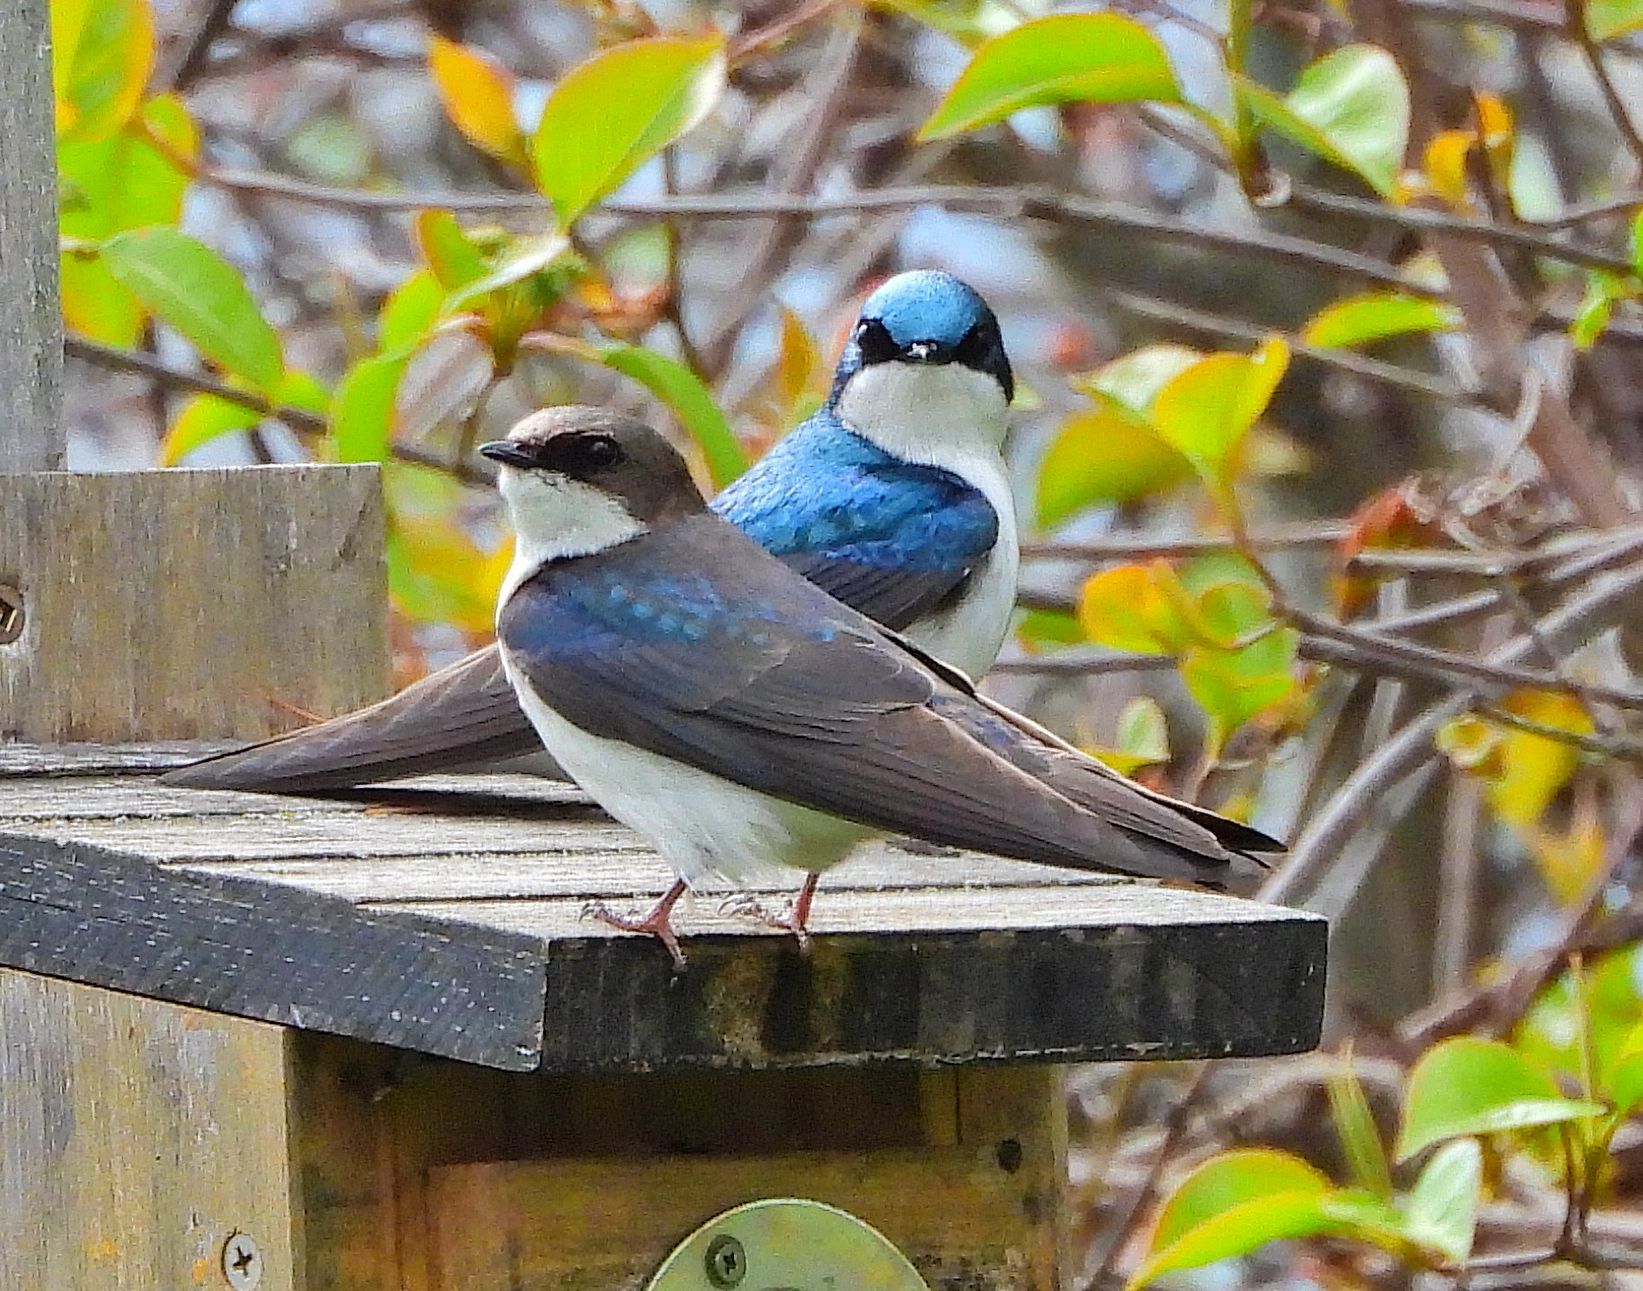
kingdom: Animalia
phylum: Chordata
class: Aves
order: Passeriformes
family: Hirundinidae
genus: Tachycineta
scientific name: Tachycineta bicolor
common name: Tree swallow
